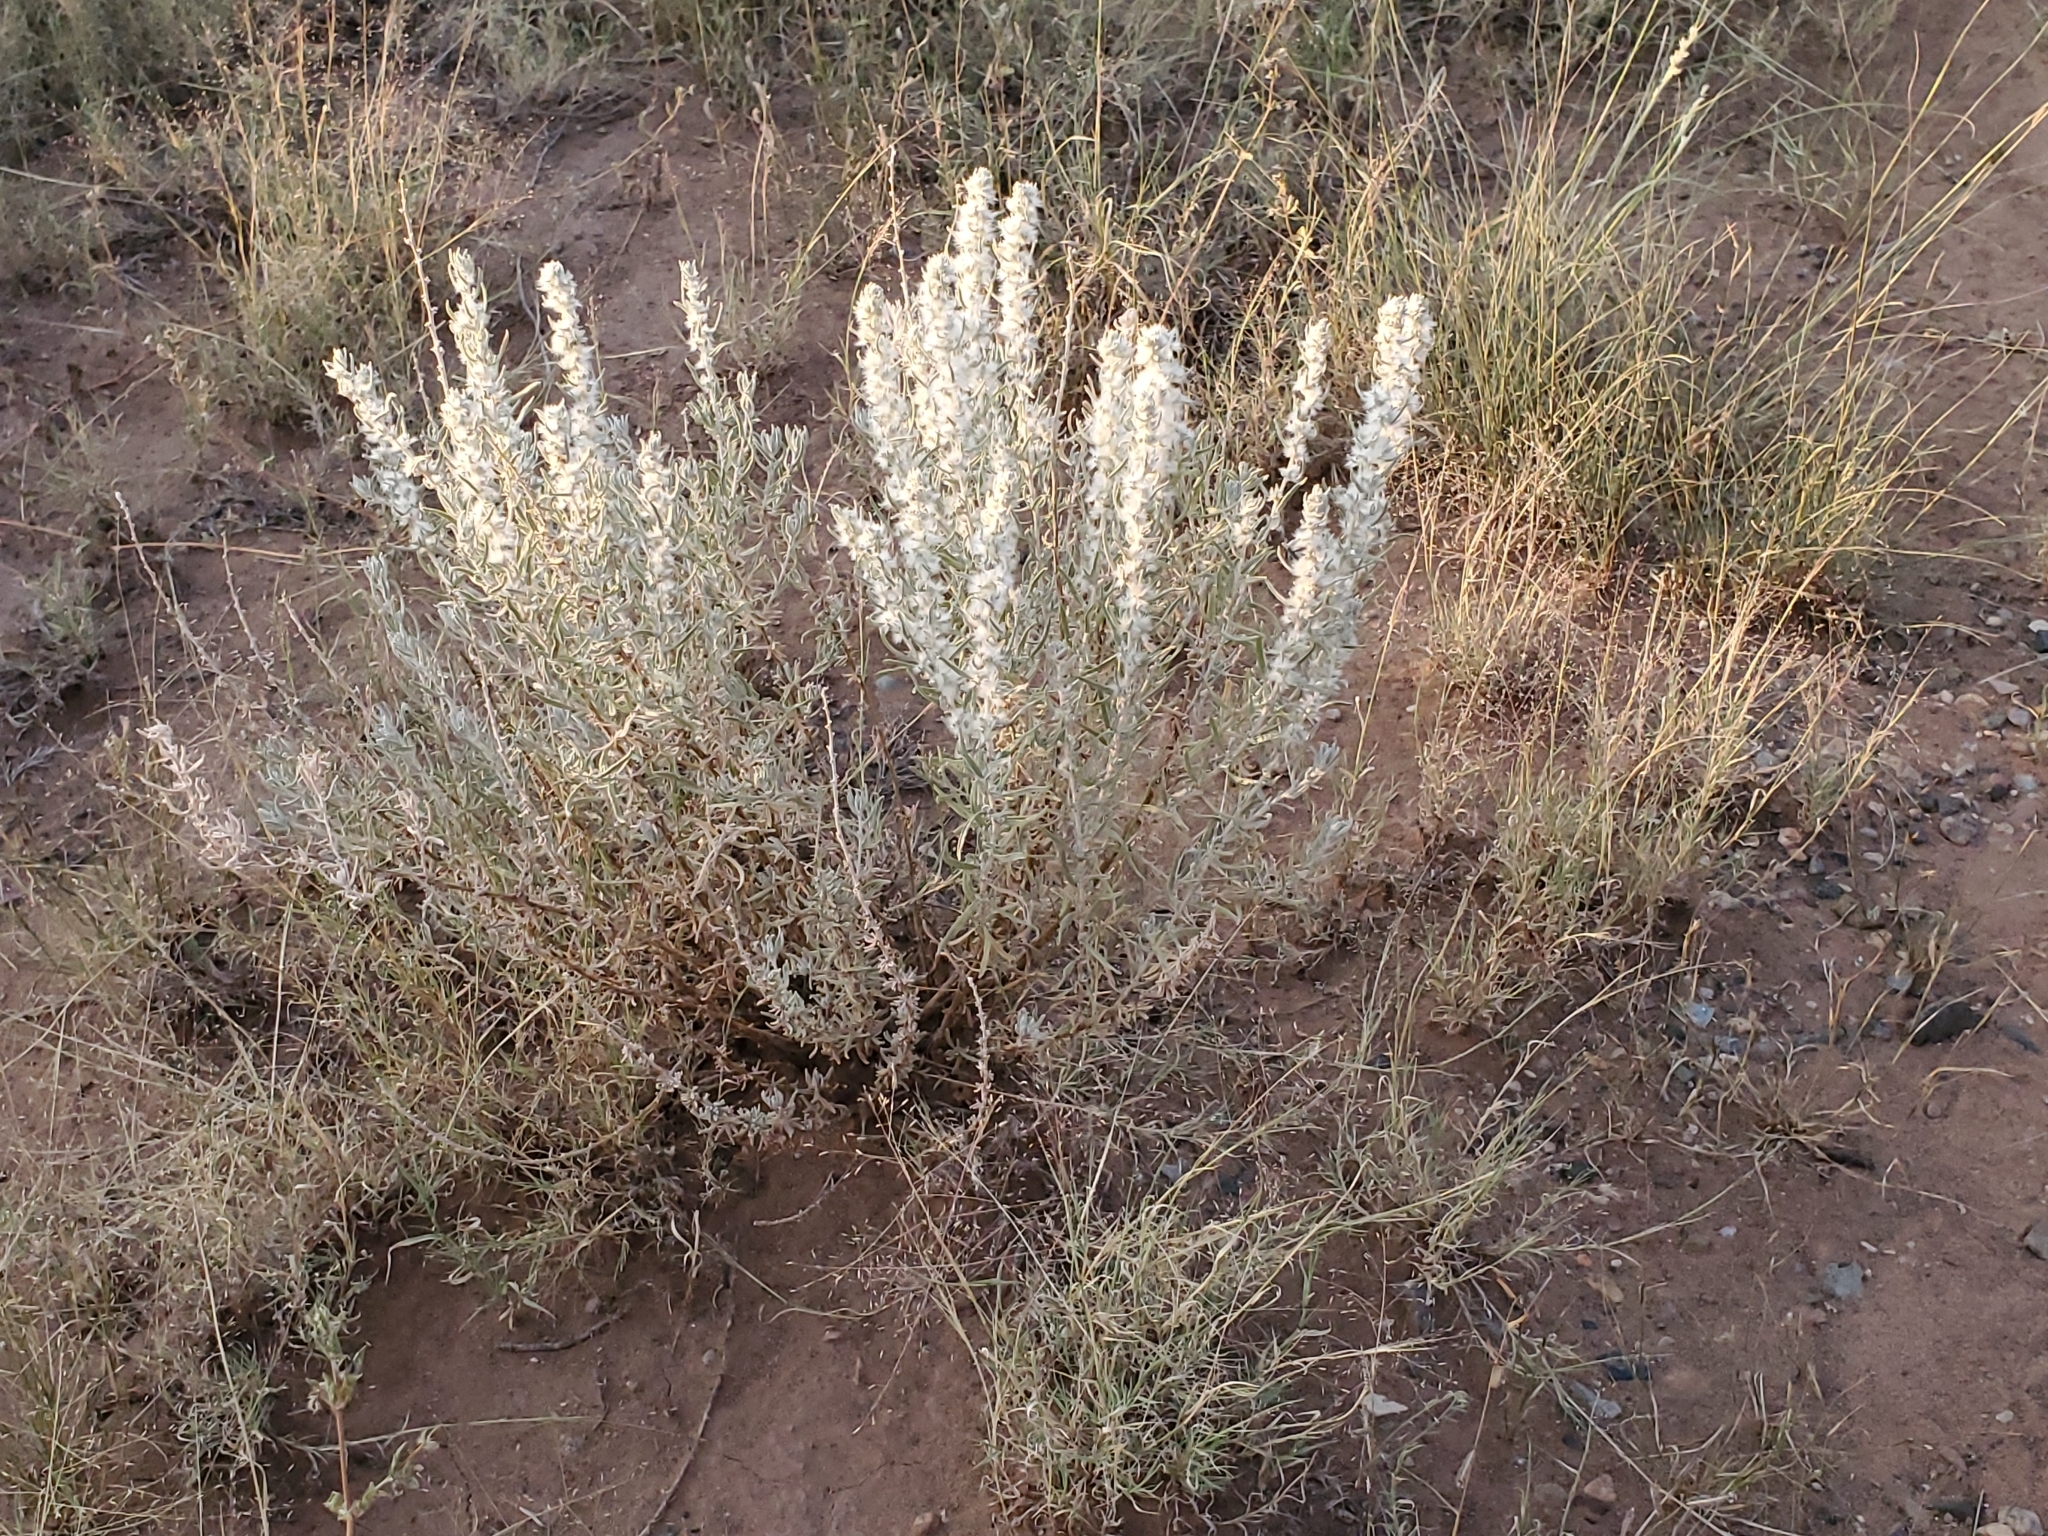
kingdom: Plantae
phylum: Tracheophyta
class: Magnoliopsida
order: Caryophyllales
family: Amaranthaceae
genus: Krascheninnikovia
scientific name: Krascheninnikovia lanata
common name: Winterfat
